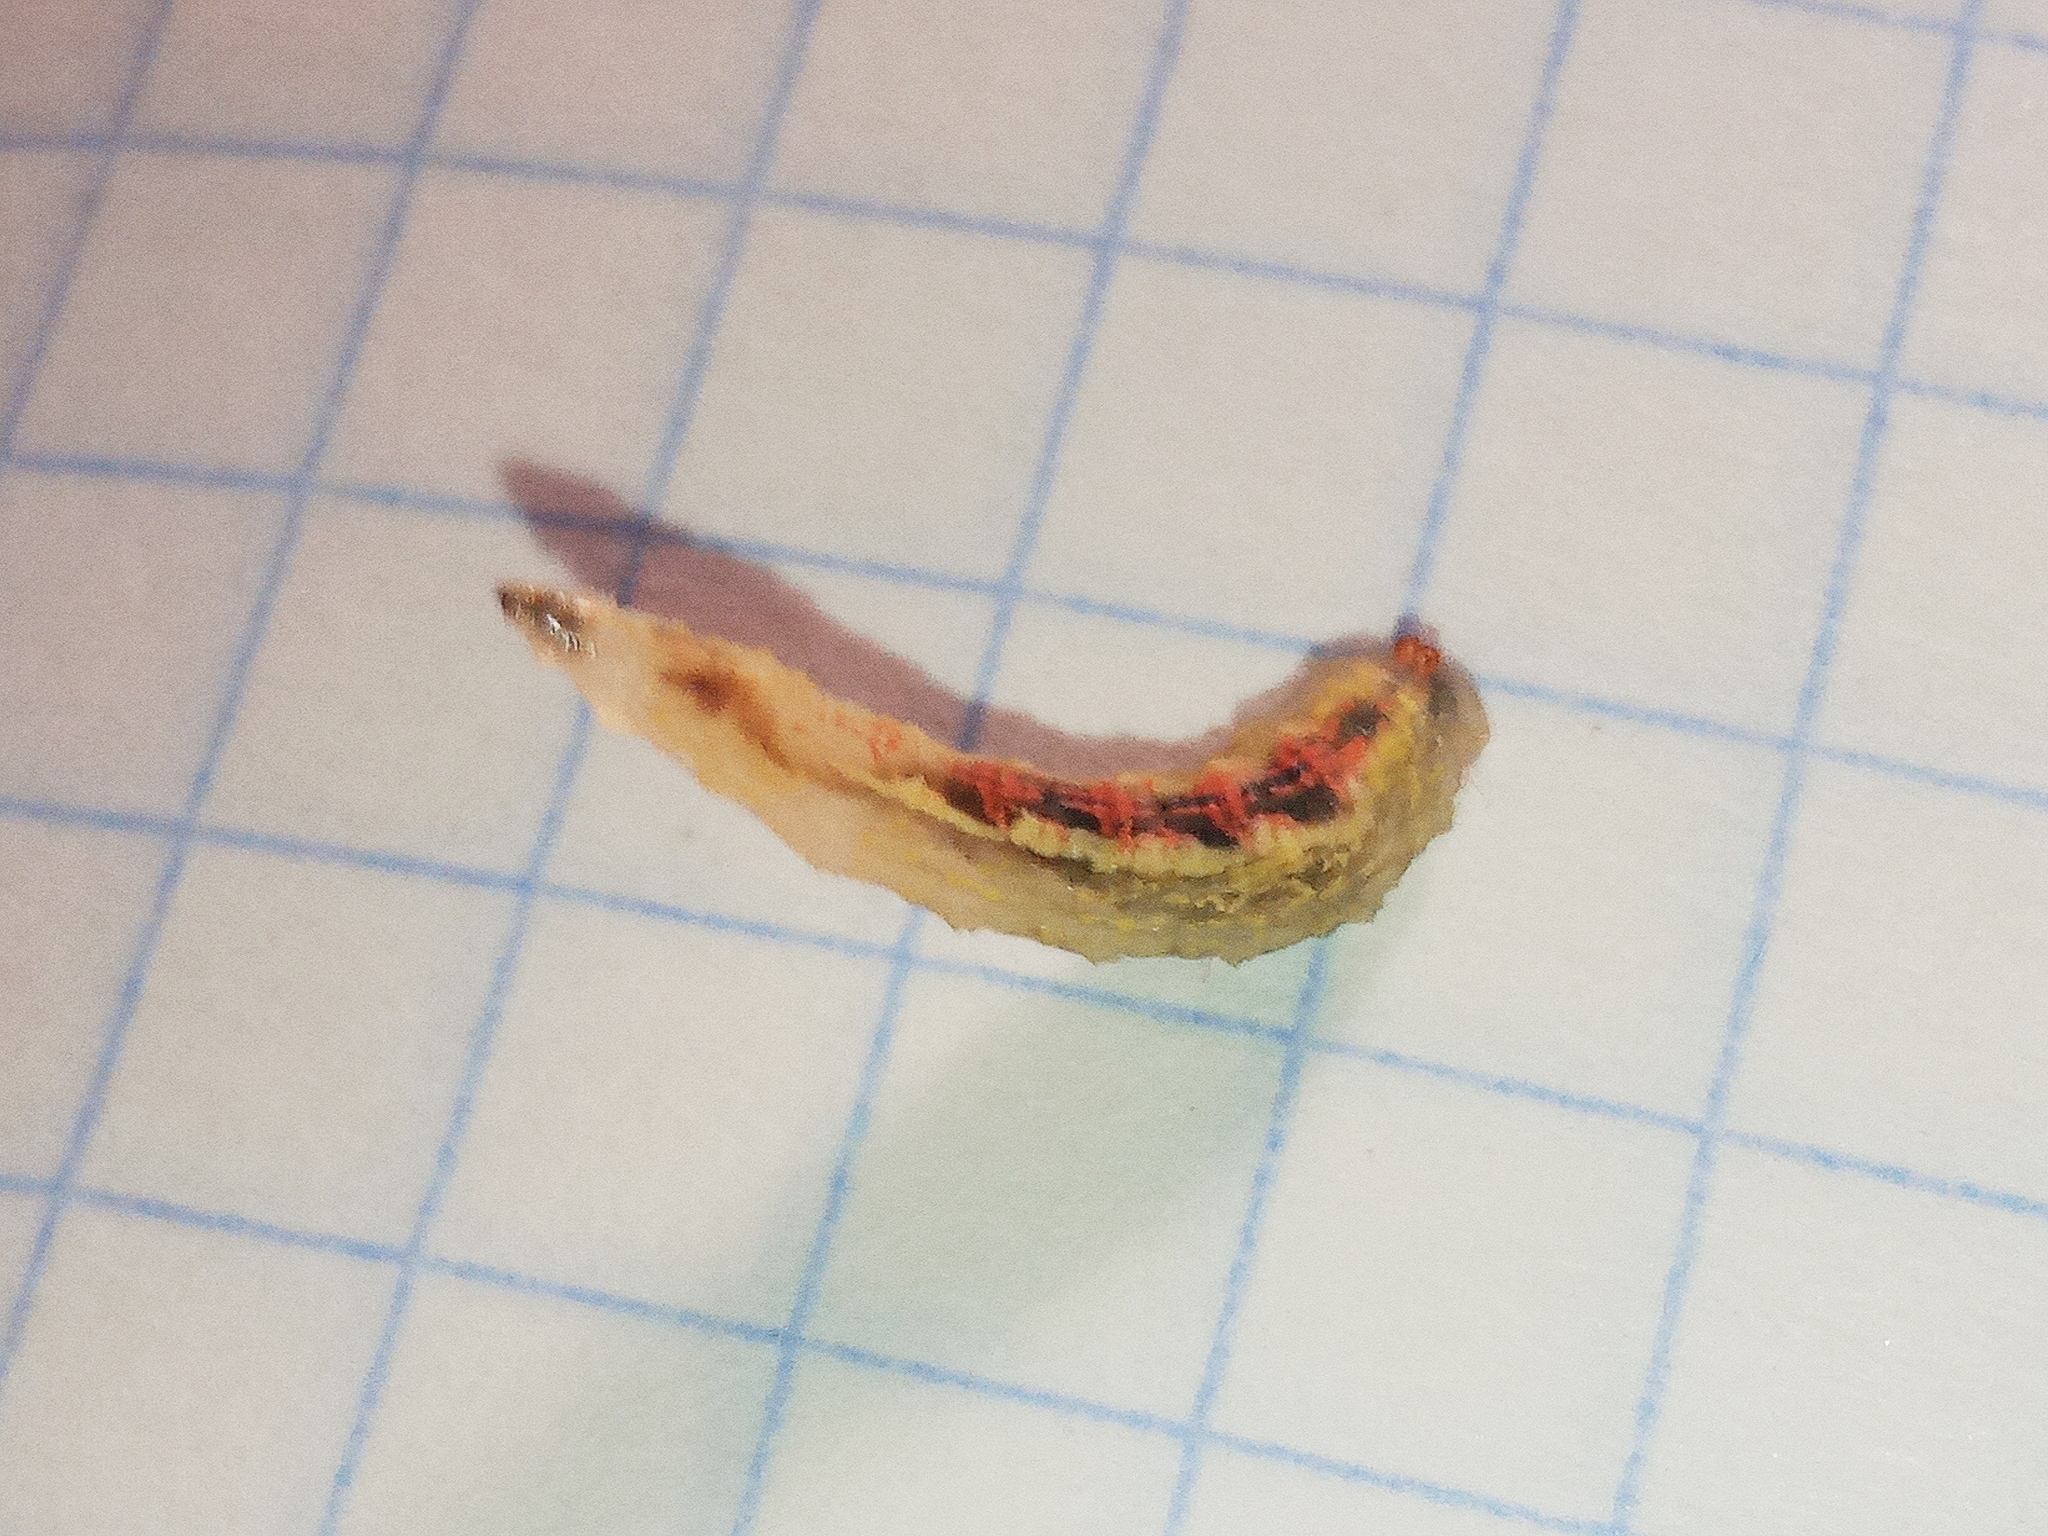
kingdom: Animalia
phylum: Arthropoda
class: Insecta
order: Diptera
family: Syrphidae
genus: Syrphus
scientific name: Syrphus
